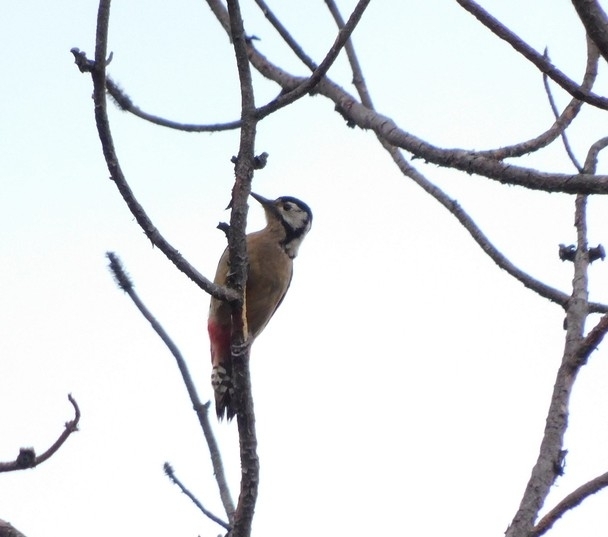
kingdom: Animalia
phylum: Chordata
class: Aves
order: Piciformes
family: Picidae
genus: Dendrocopos
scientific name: Dendrocopos himalayensis
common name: Himalayan woodpecker
